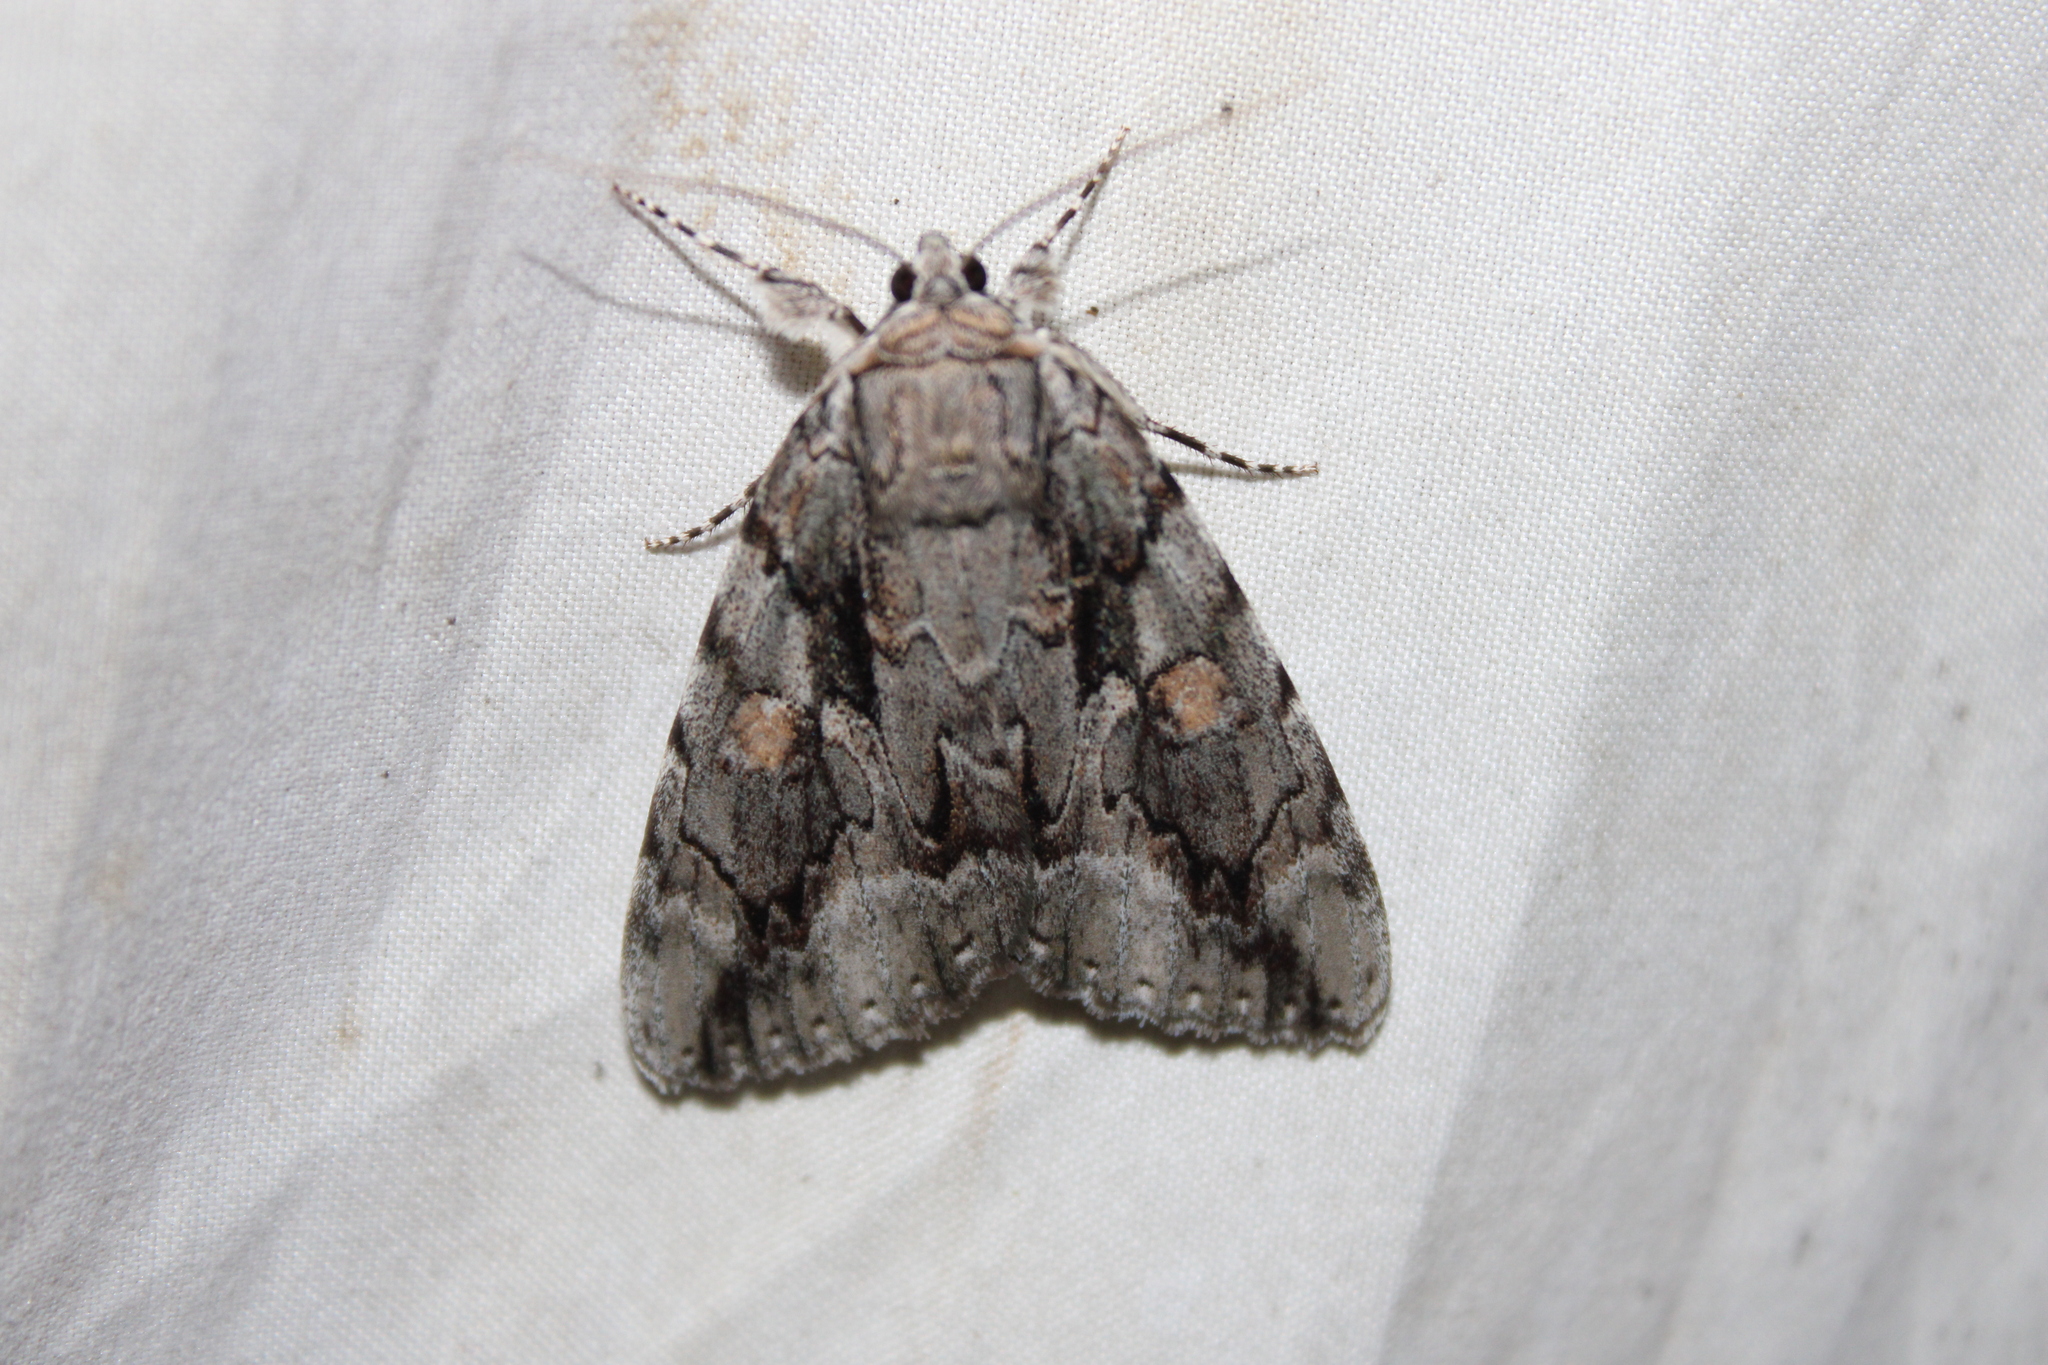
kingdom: Animalia
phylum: Arthropoda
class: Insecta
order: Lepidoptera
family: Erebidae
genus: Catocala
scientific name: Catocala flebilis
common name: Mournful underwing
